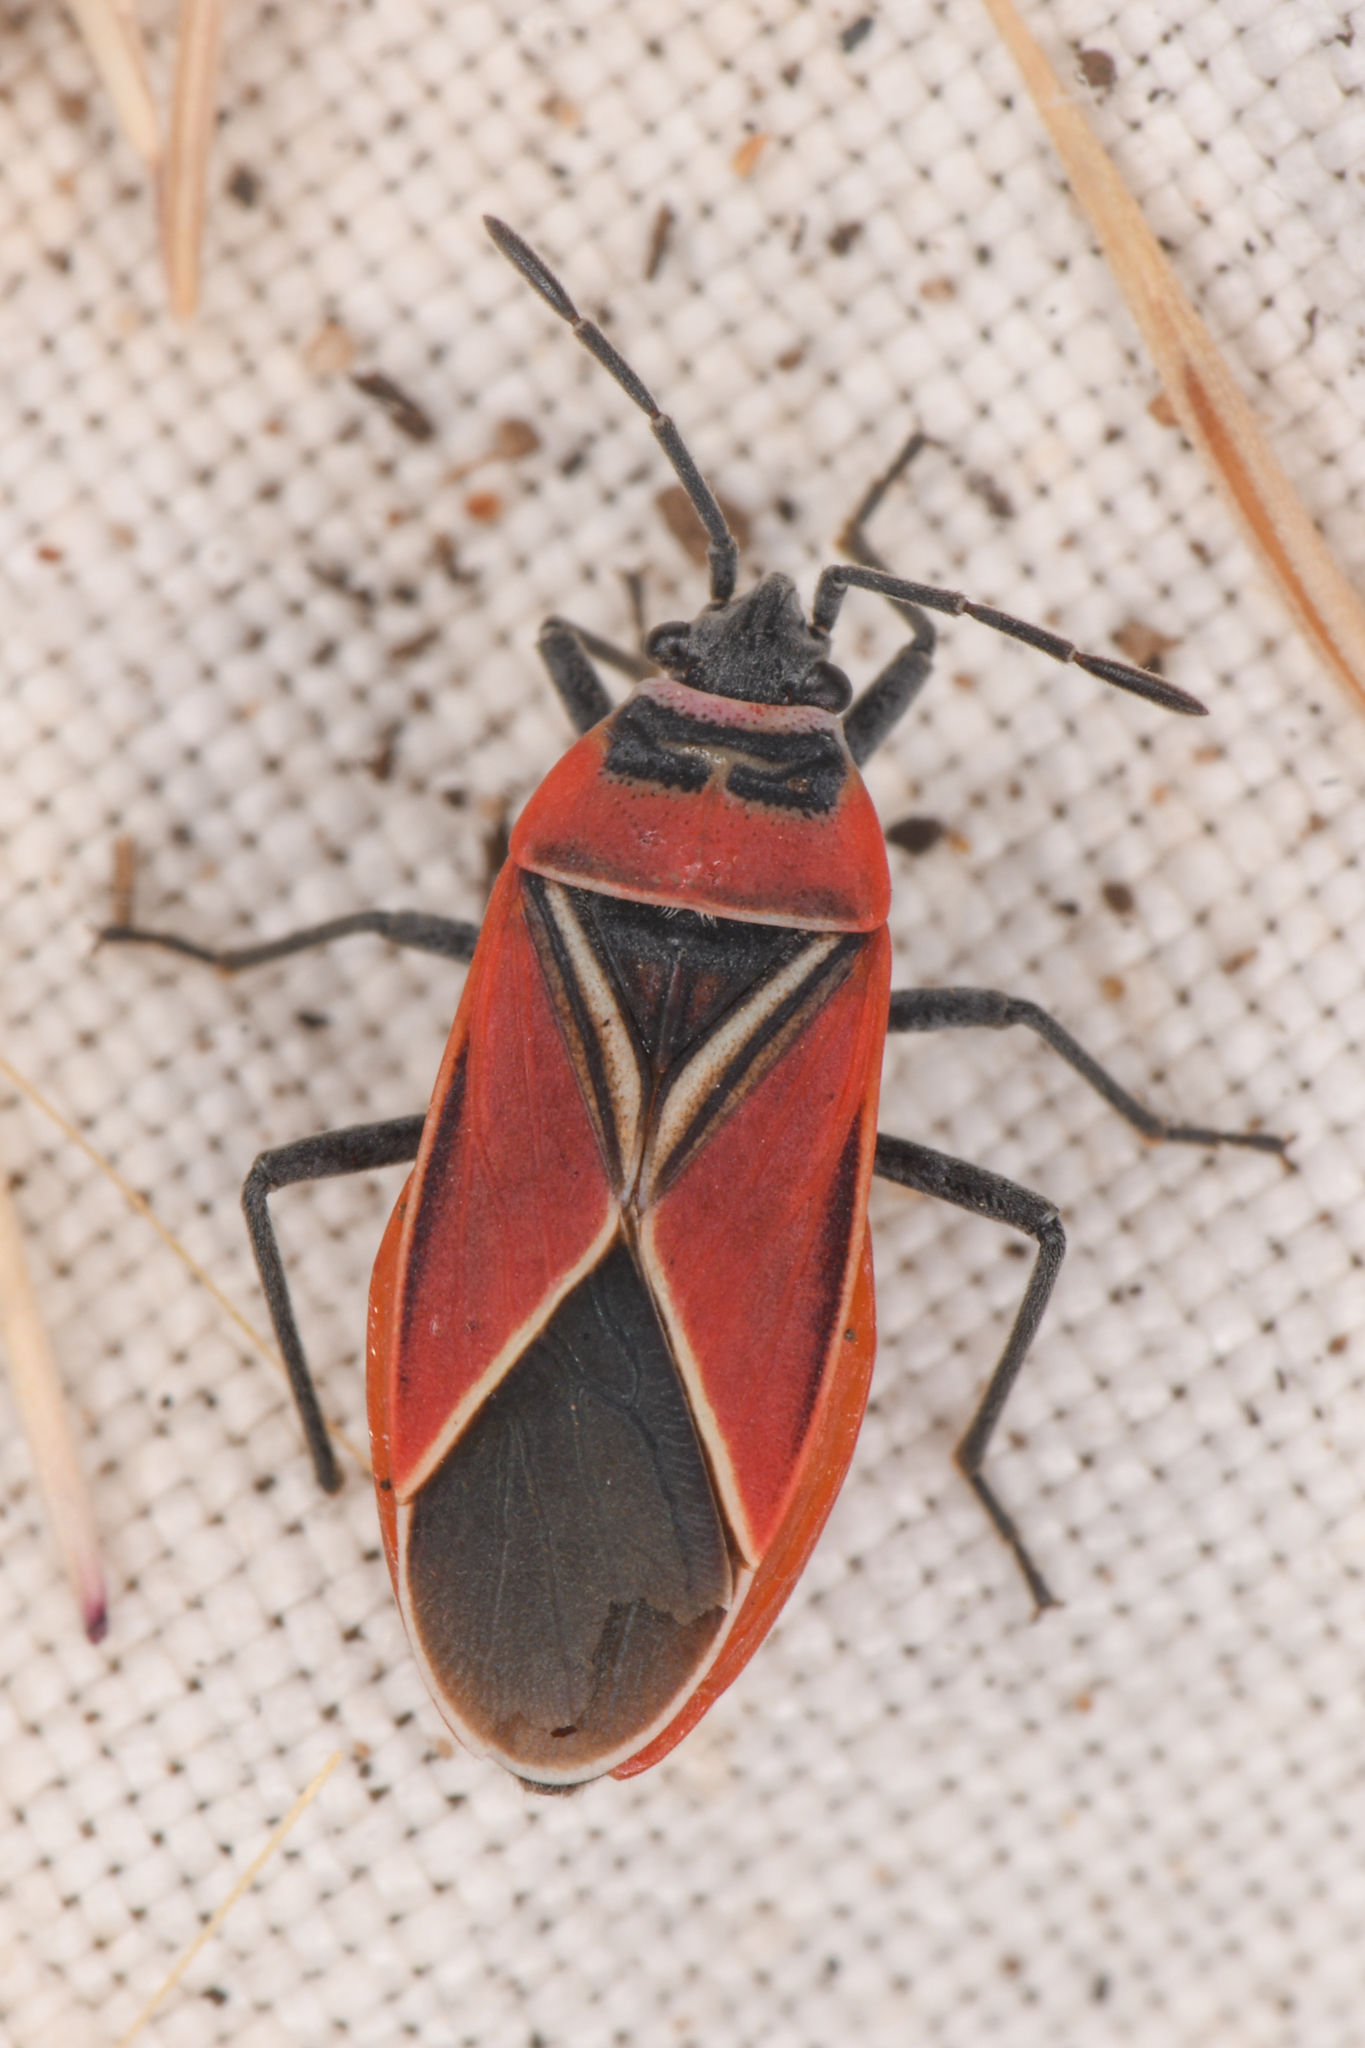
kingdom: Animalia
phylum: Arthropoda
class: Insecta
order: Hemiptera
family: Lygaeidae
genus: Neacoryphus
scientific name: Neacoryphus bicrucis
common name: Lygaeid bug
